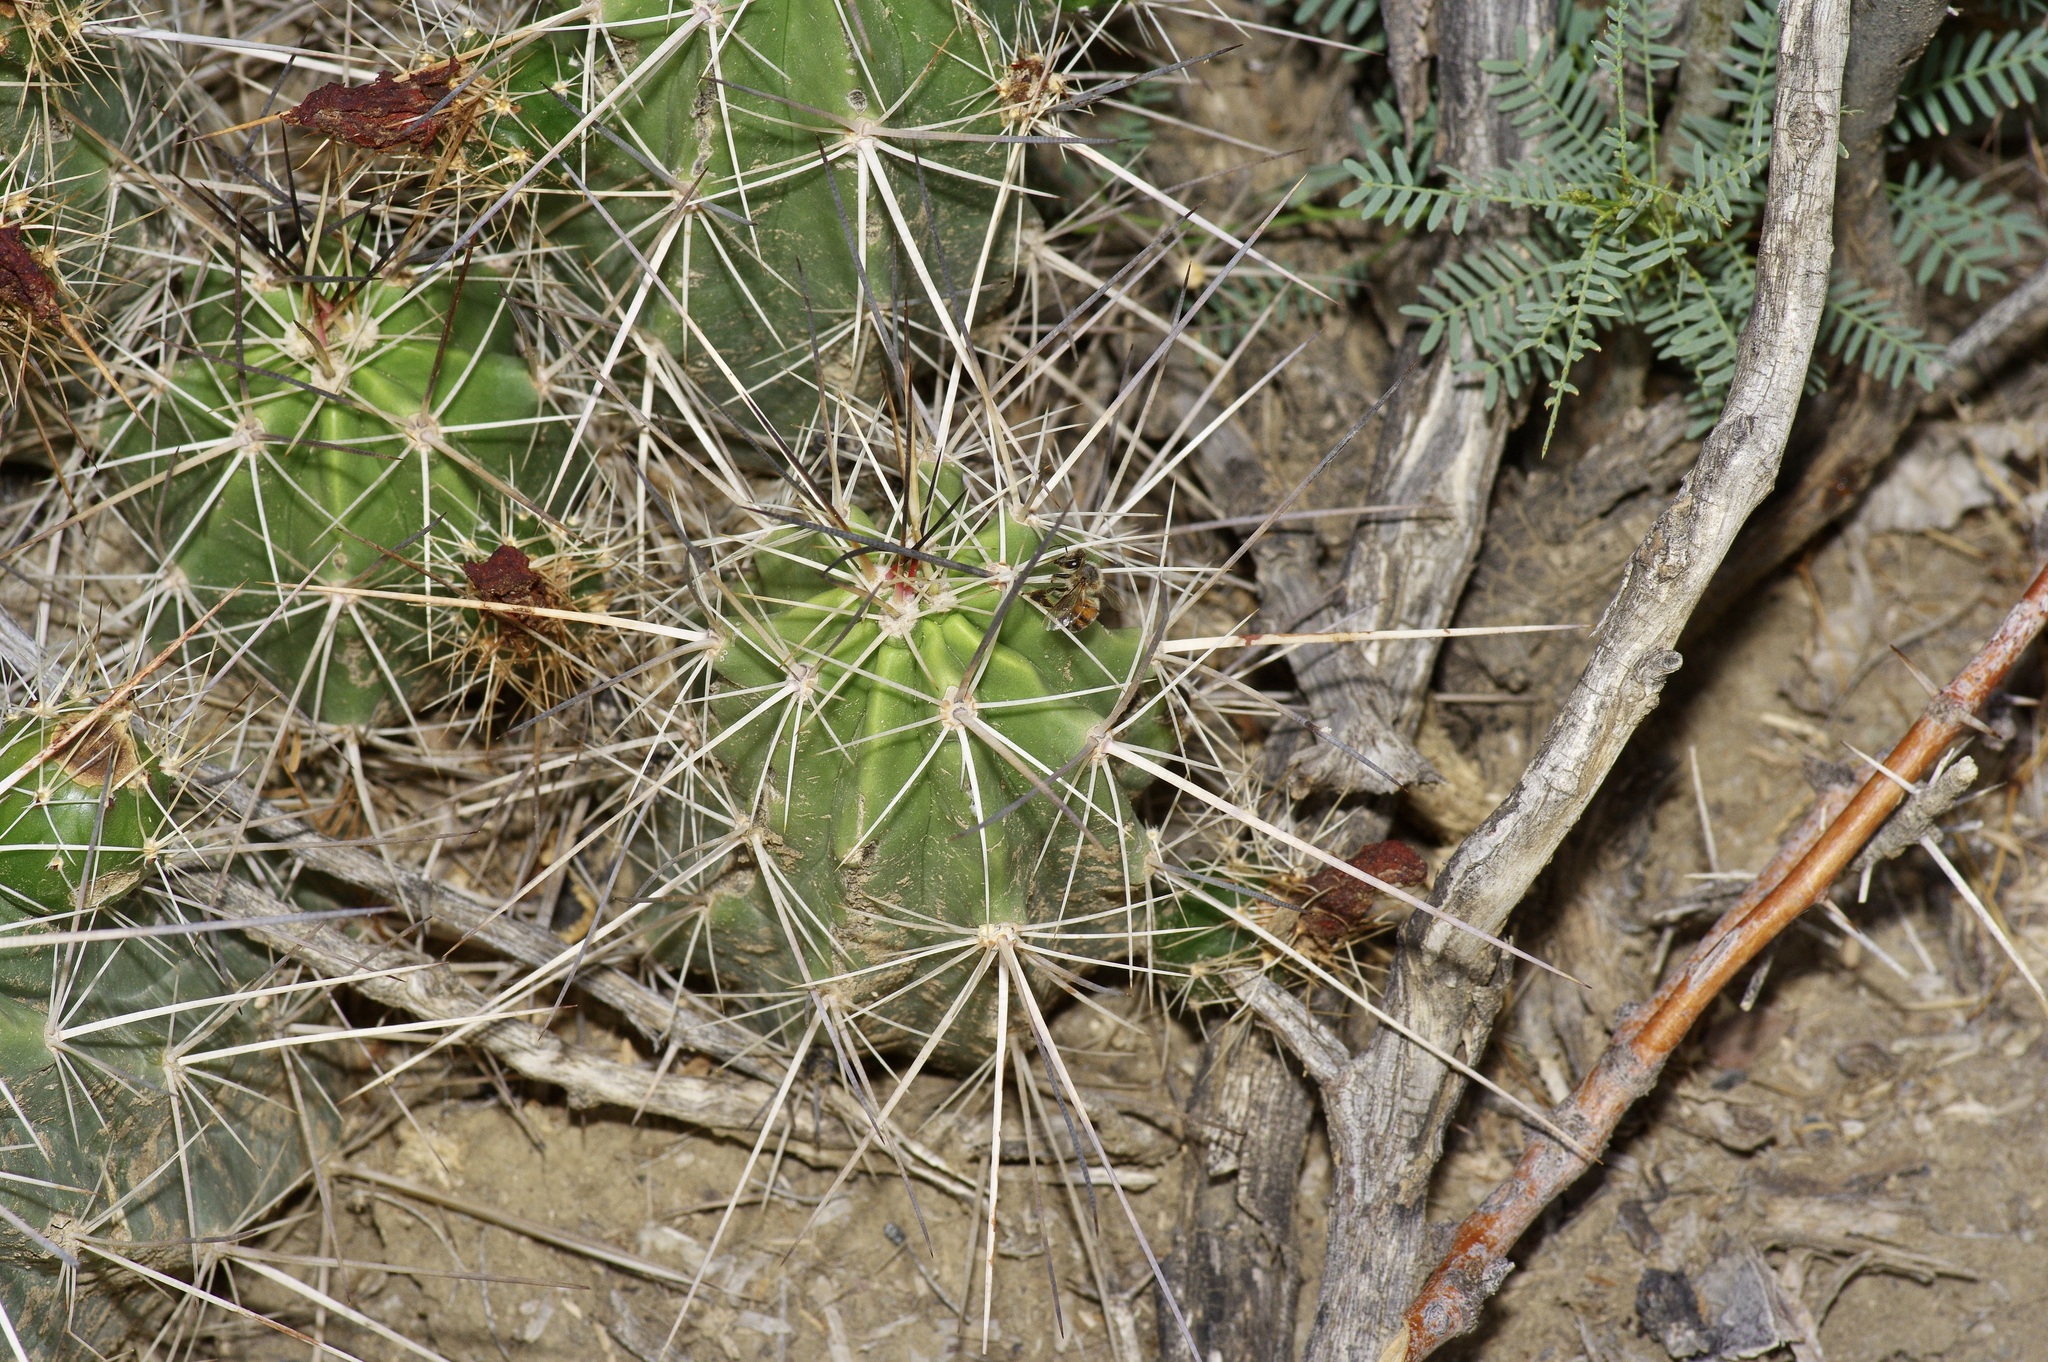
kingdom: Plantae
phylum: Tracheophyta
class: Magnoliopsida
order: Caryophyllales
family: Cactaceae
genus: Echinocereus
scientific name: Echinocereus enneacanthus
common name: Pitaya
